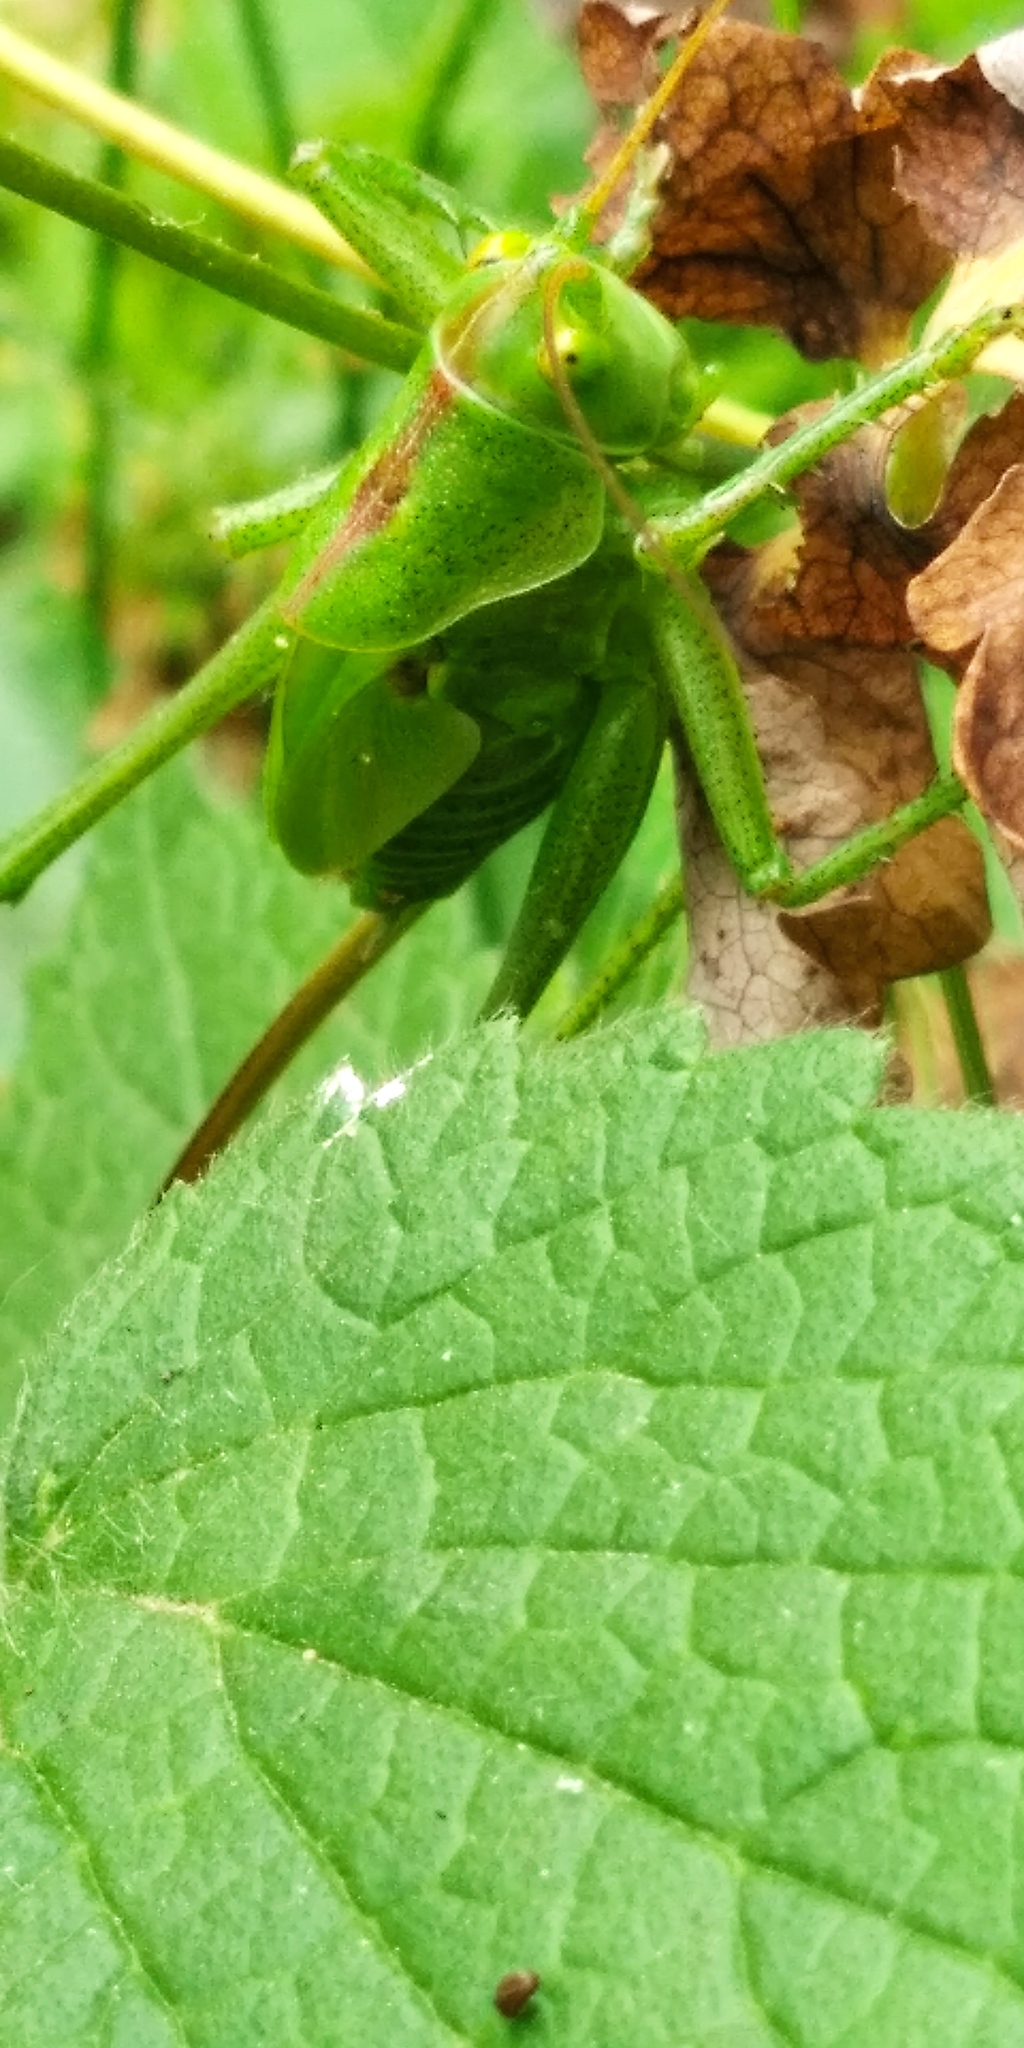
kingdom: Animalia
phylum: Arthropoda
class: Insecta
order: Orthoptera
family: Tettigoniidae
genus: Tettigonia
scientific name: Tettigonia viridissima
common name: Great green bush-cricket
